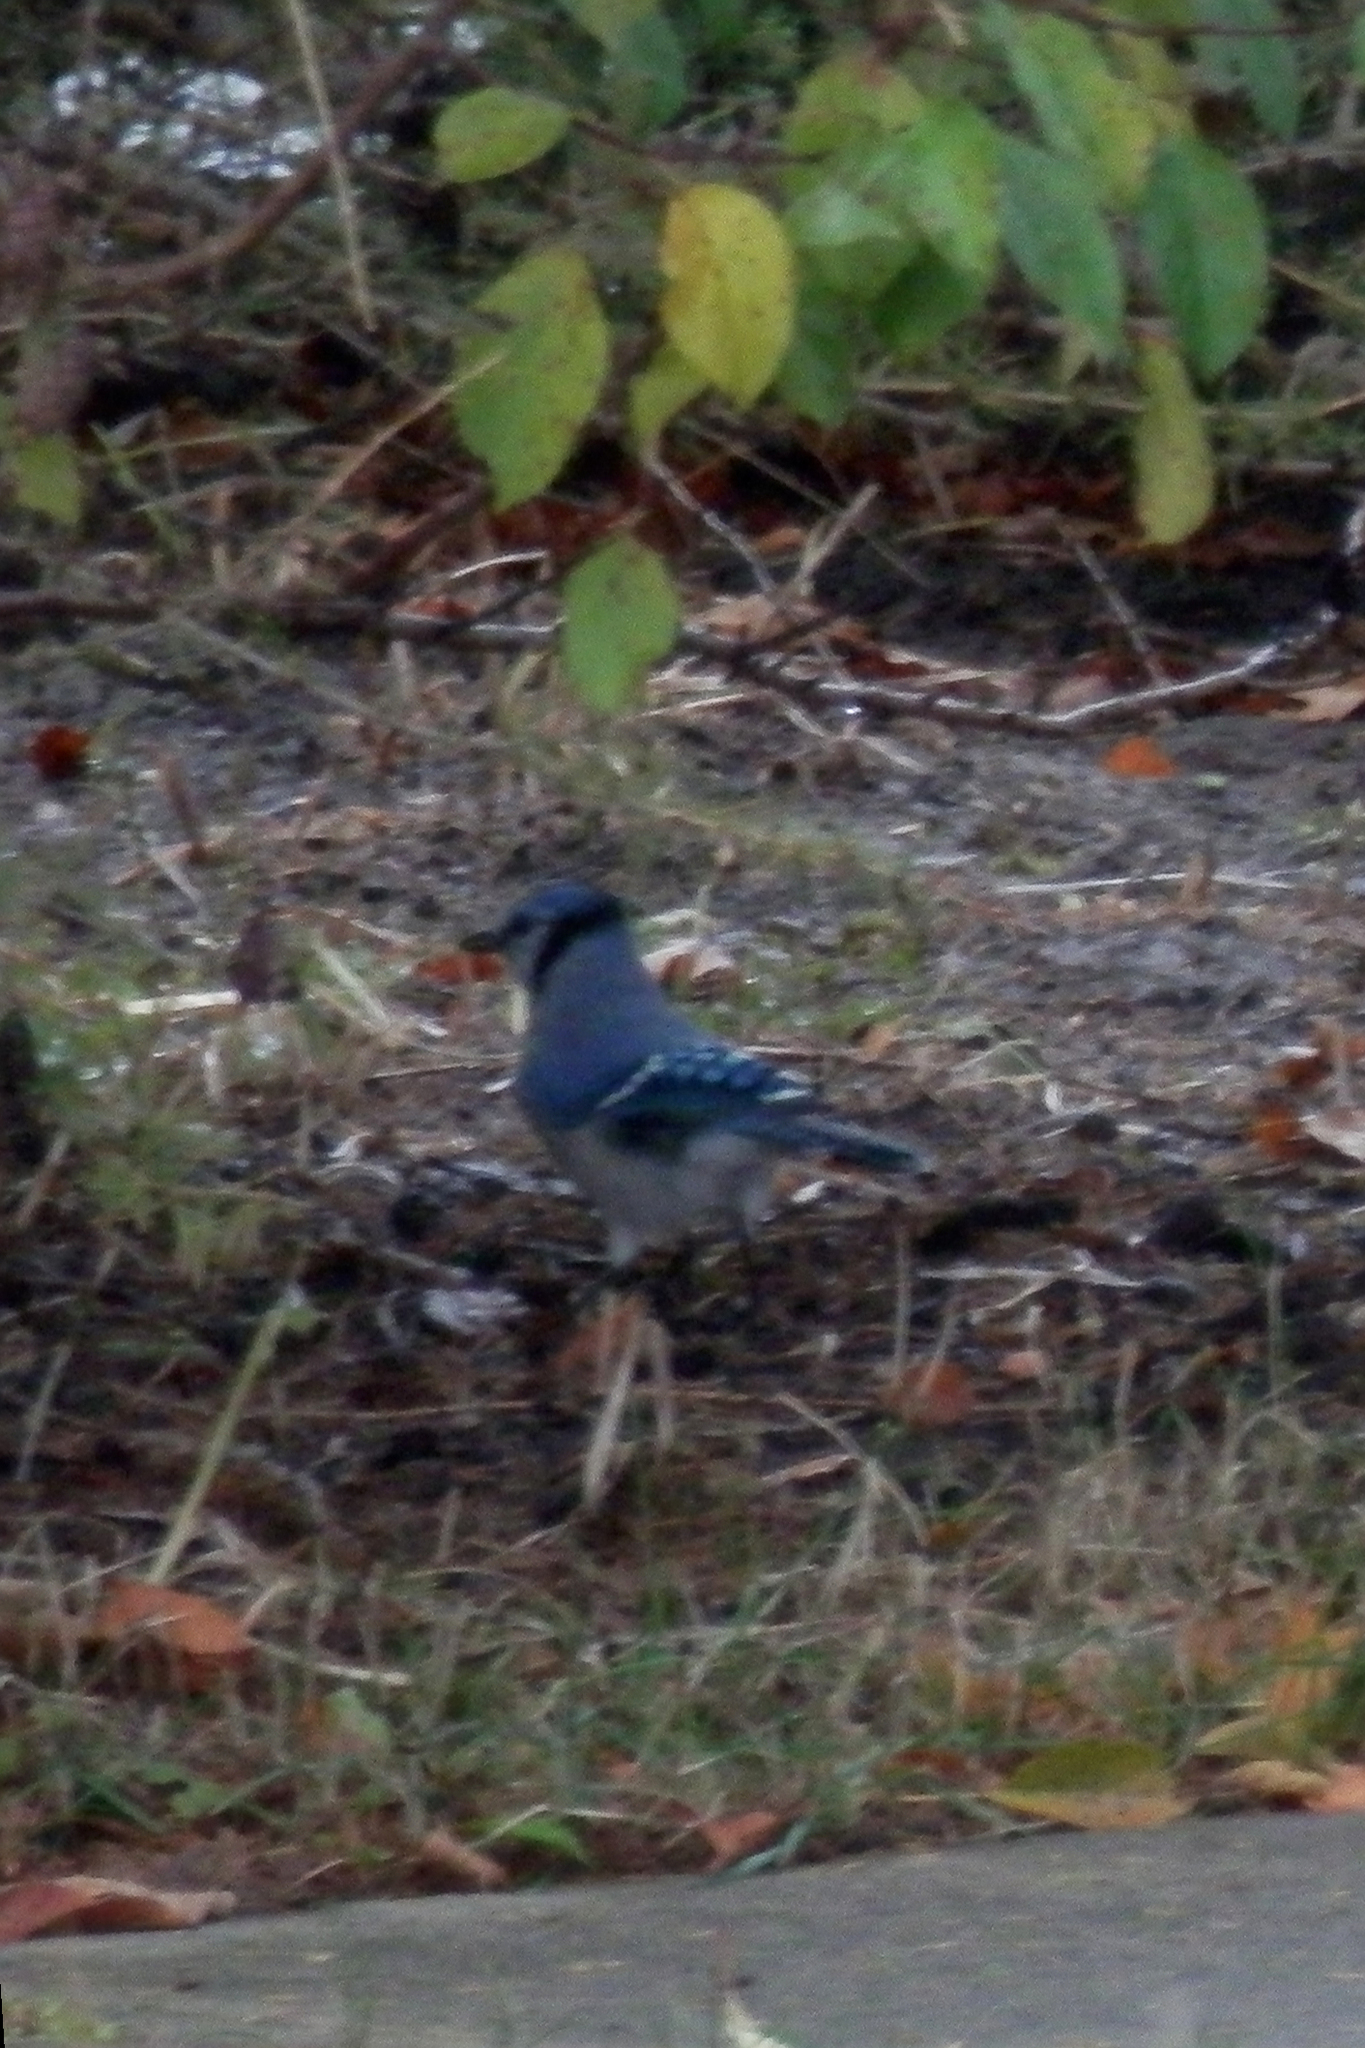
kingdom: Animalia
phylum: Chordata
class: Aves
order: Passeriformes
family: Corvidae
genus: Cyanocitta
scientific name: Cyanocitta cristata
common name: Blue jay
